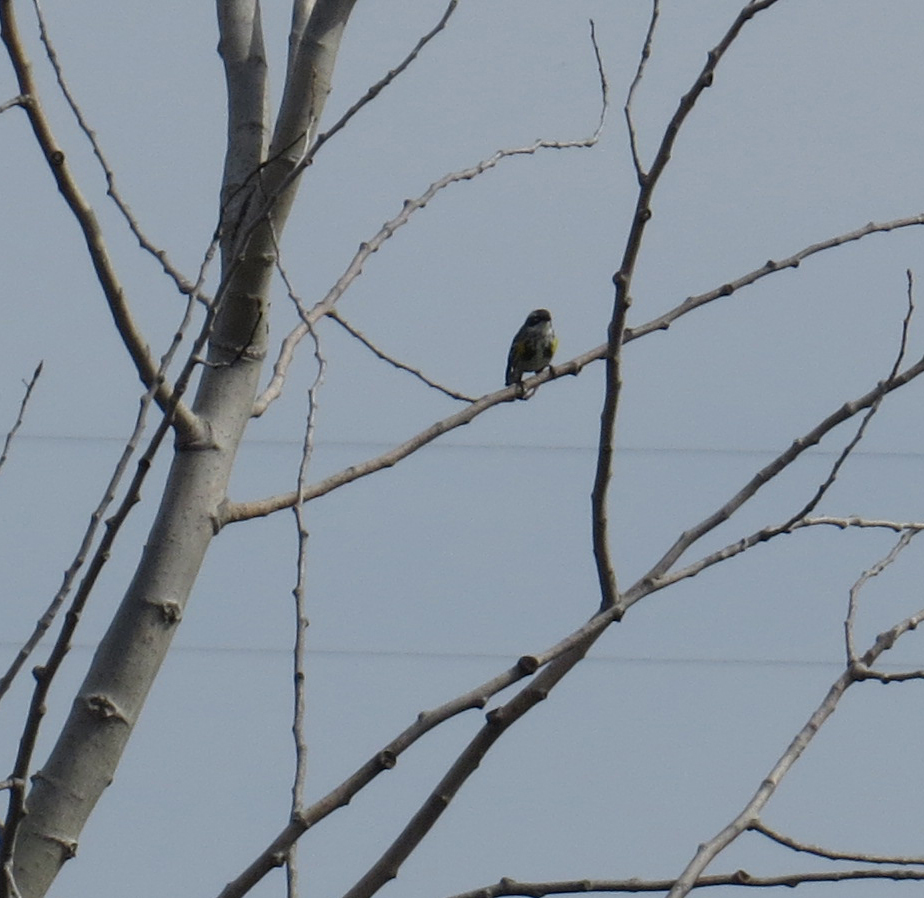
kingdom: Animalia
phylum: Chordata
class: Aves
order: Passeriformes
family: Parulidae
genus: Setophaga
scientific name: Setophaga coronata
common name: Myrtle warbler
